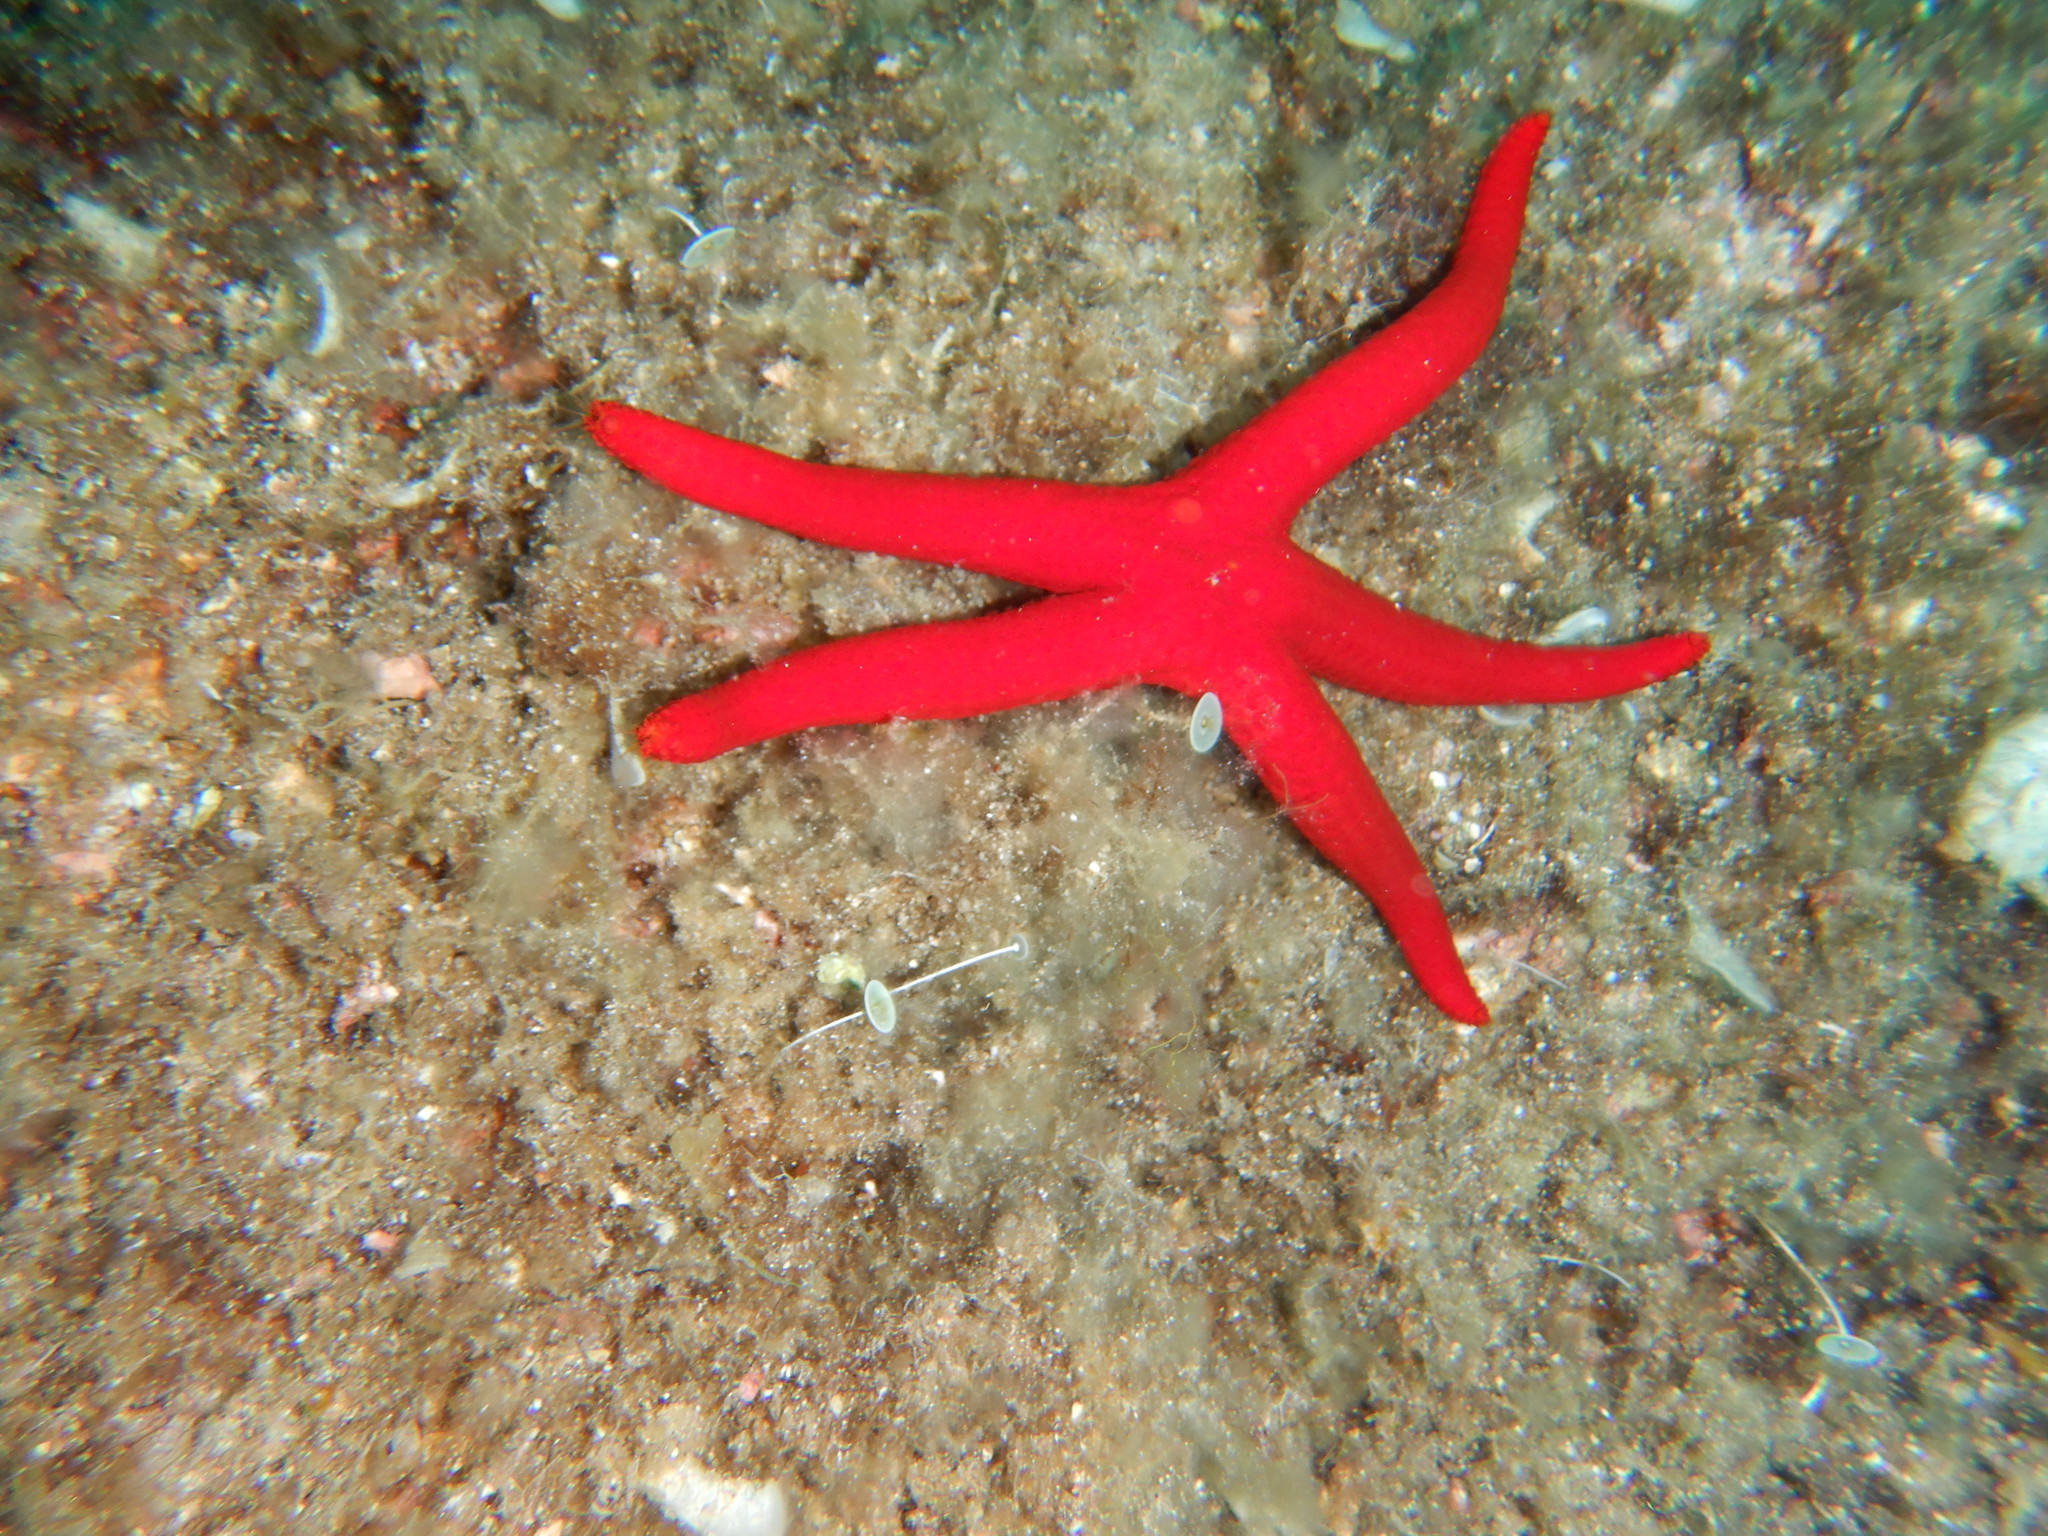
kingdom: Animalia
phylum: Echinodermata
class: Asteroidea
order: Valvatida
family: Ophidiasteridae
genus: Hacelia
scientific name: Hacelia attenuata
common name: Smooth starfish
